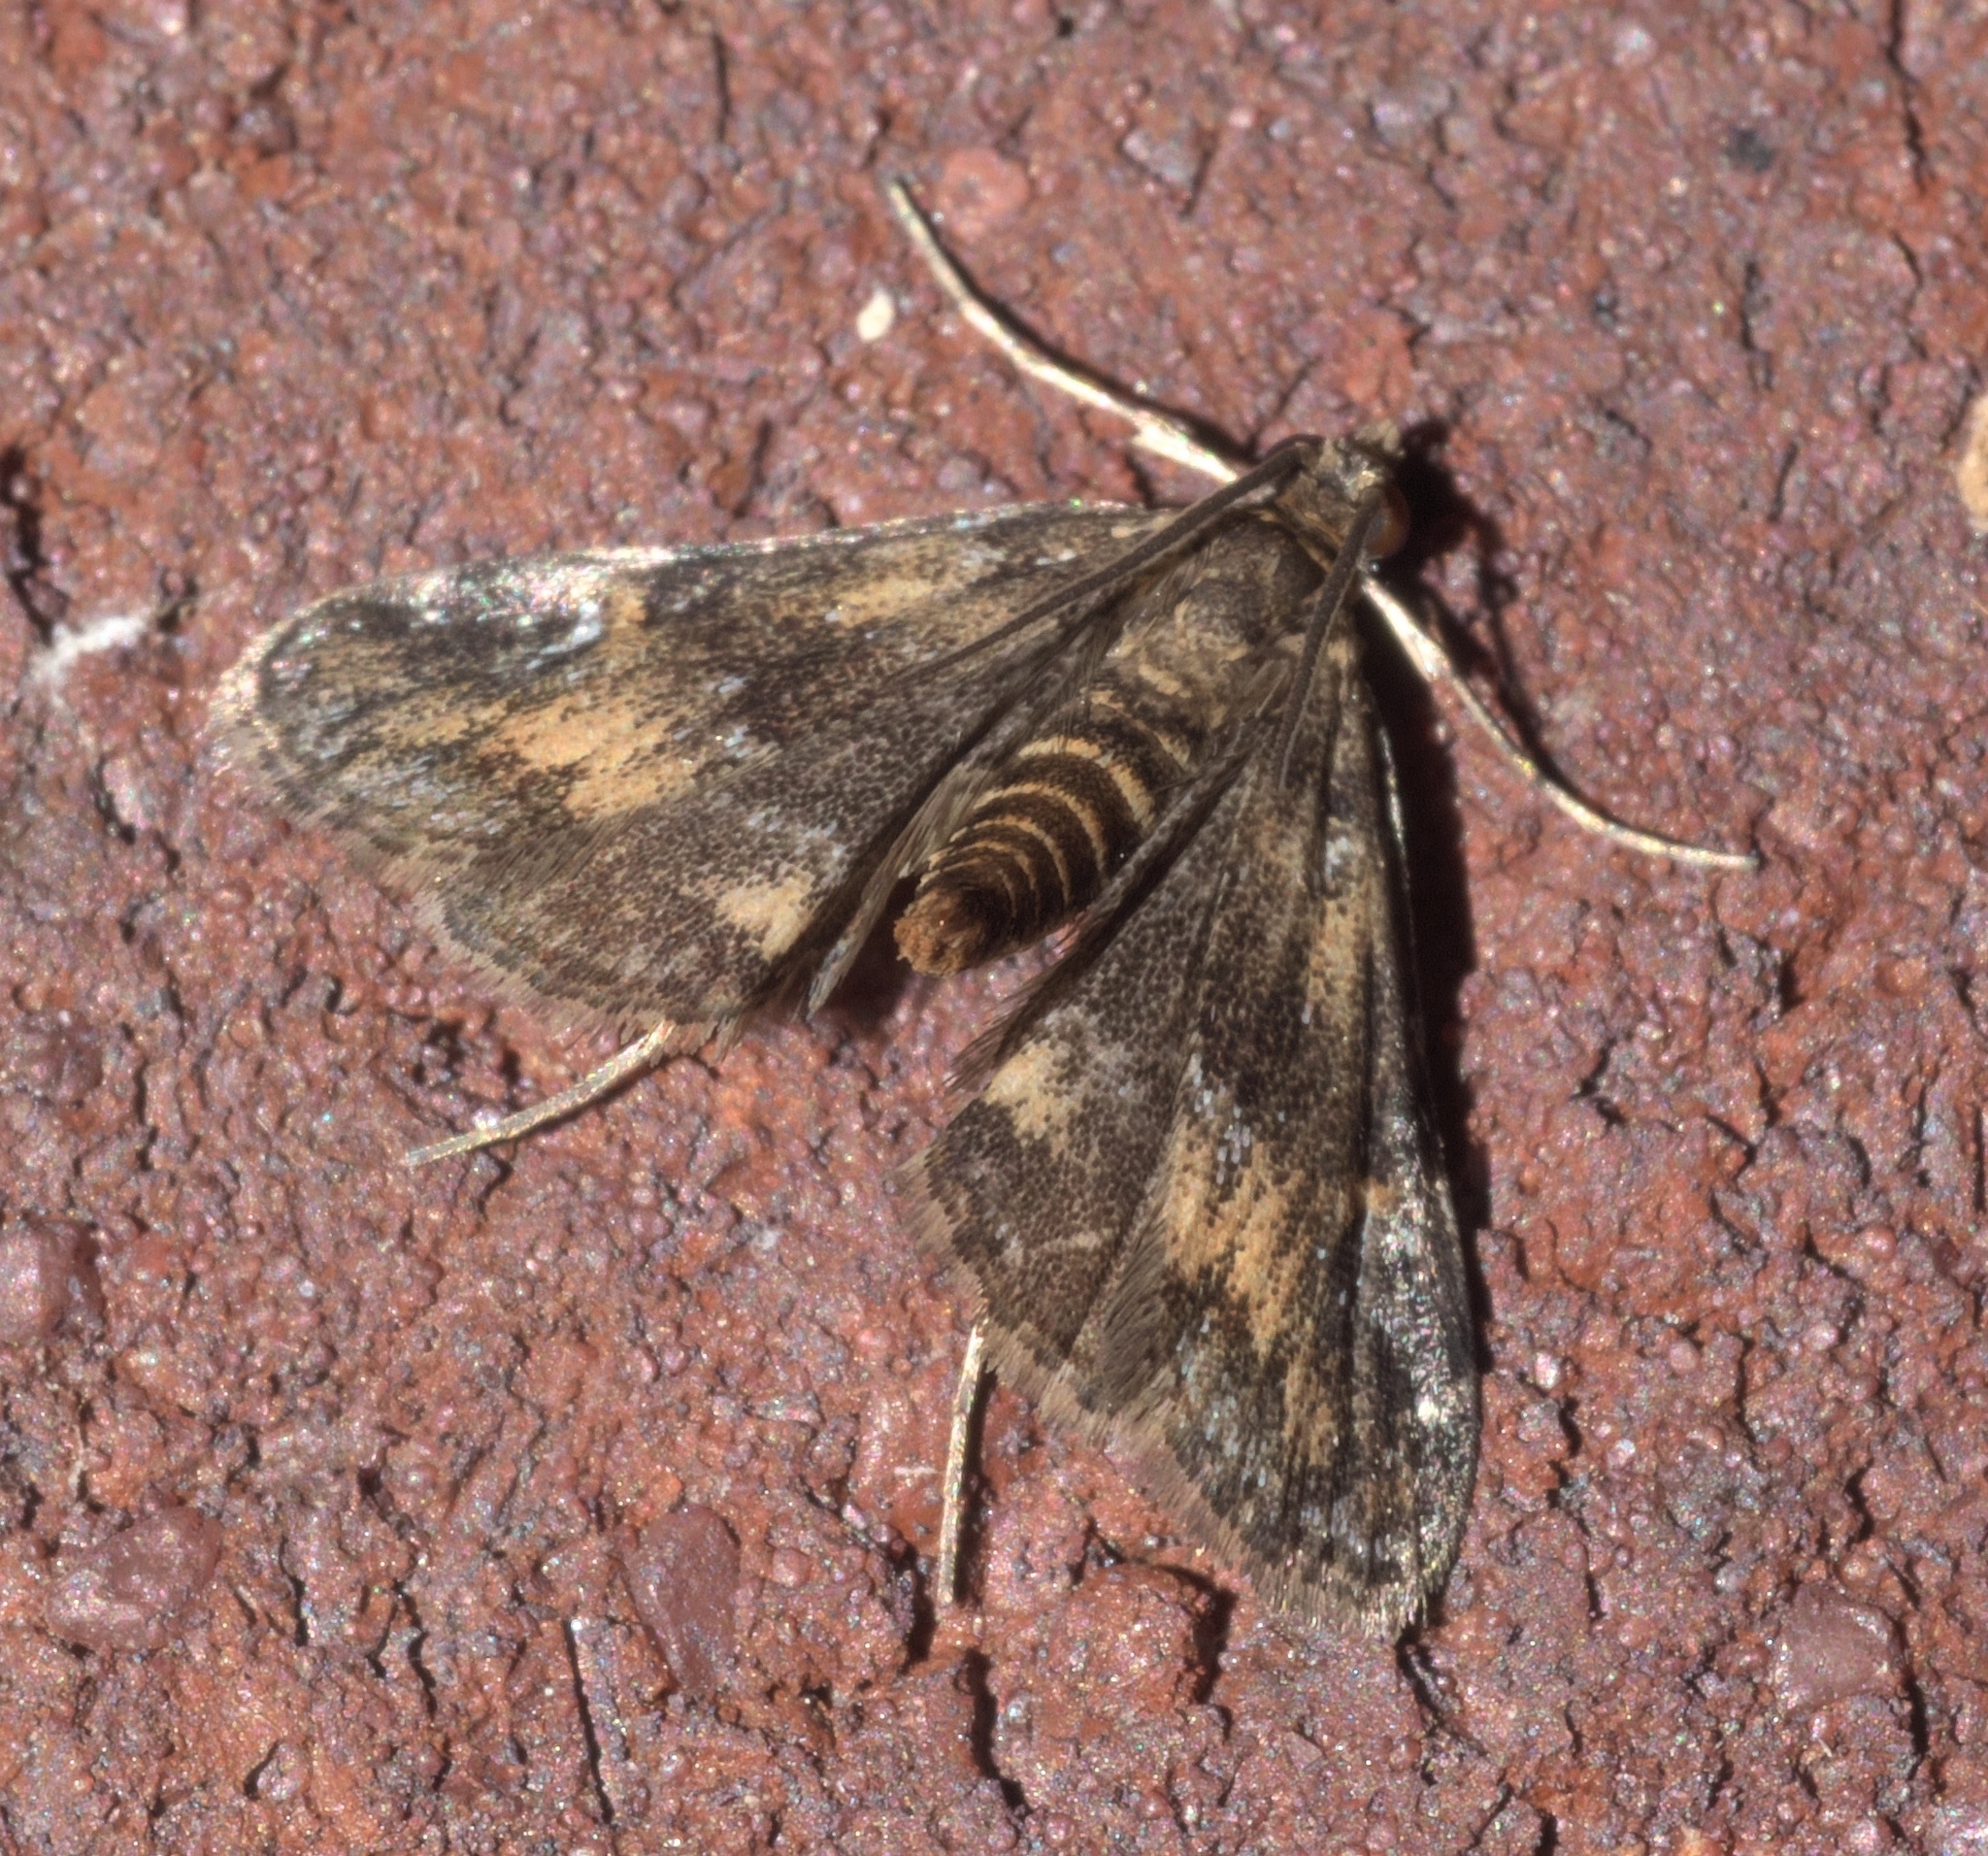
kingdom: Animalia
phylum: Arthropoda
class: Insecta
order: Lepidoptera
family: Crambidae
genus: Elophila
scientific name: Elophila obliteralis
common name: Waterlily leafcutter moth
